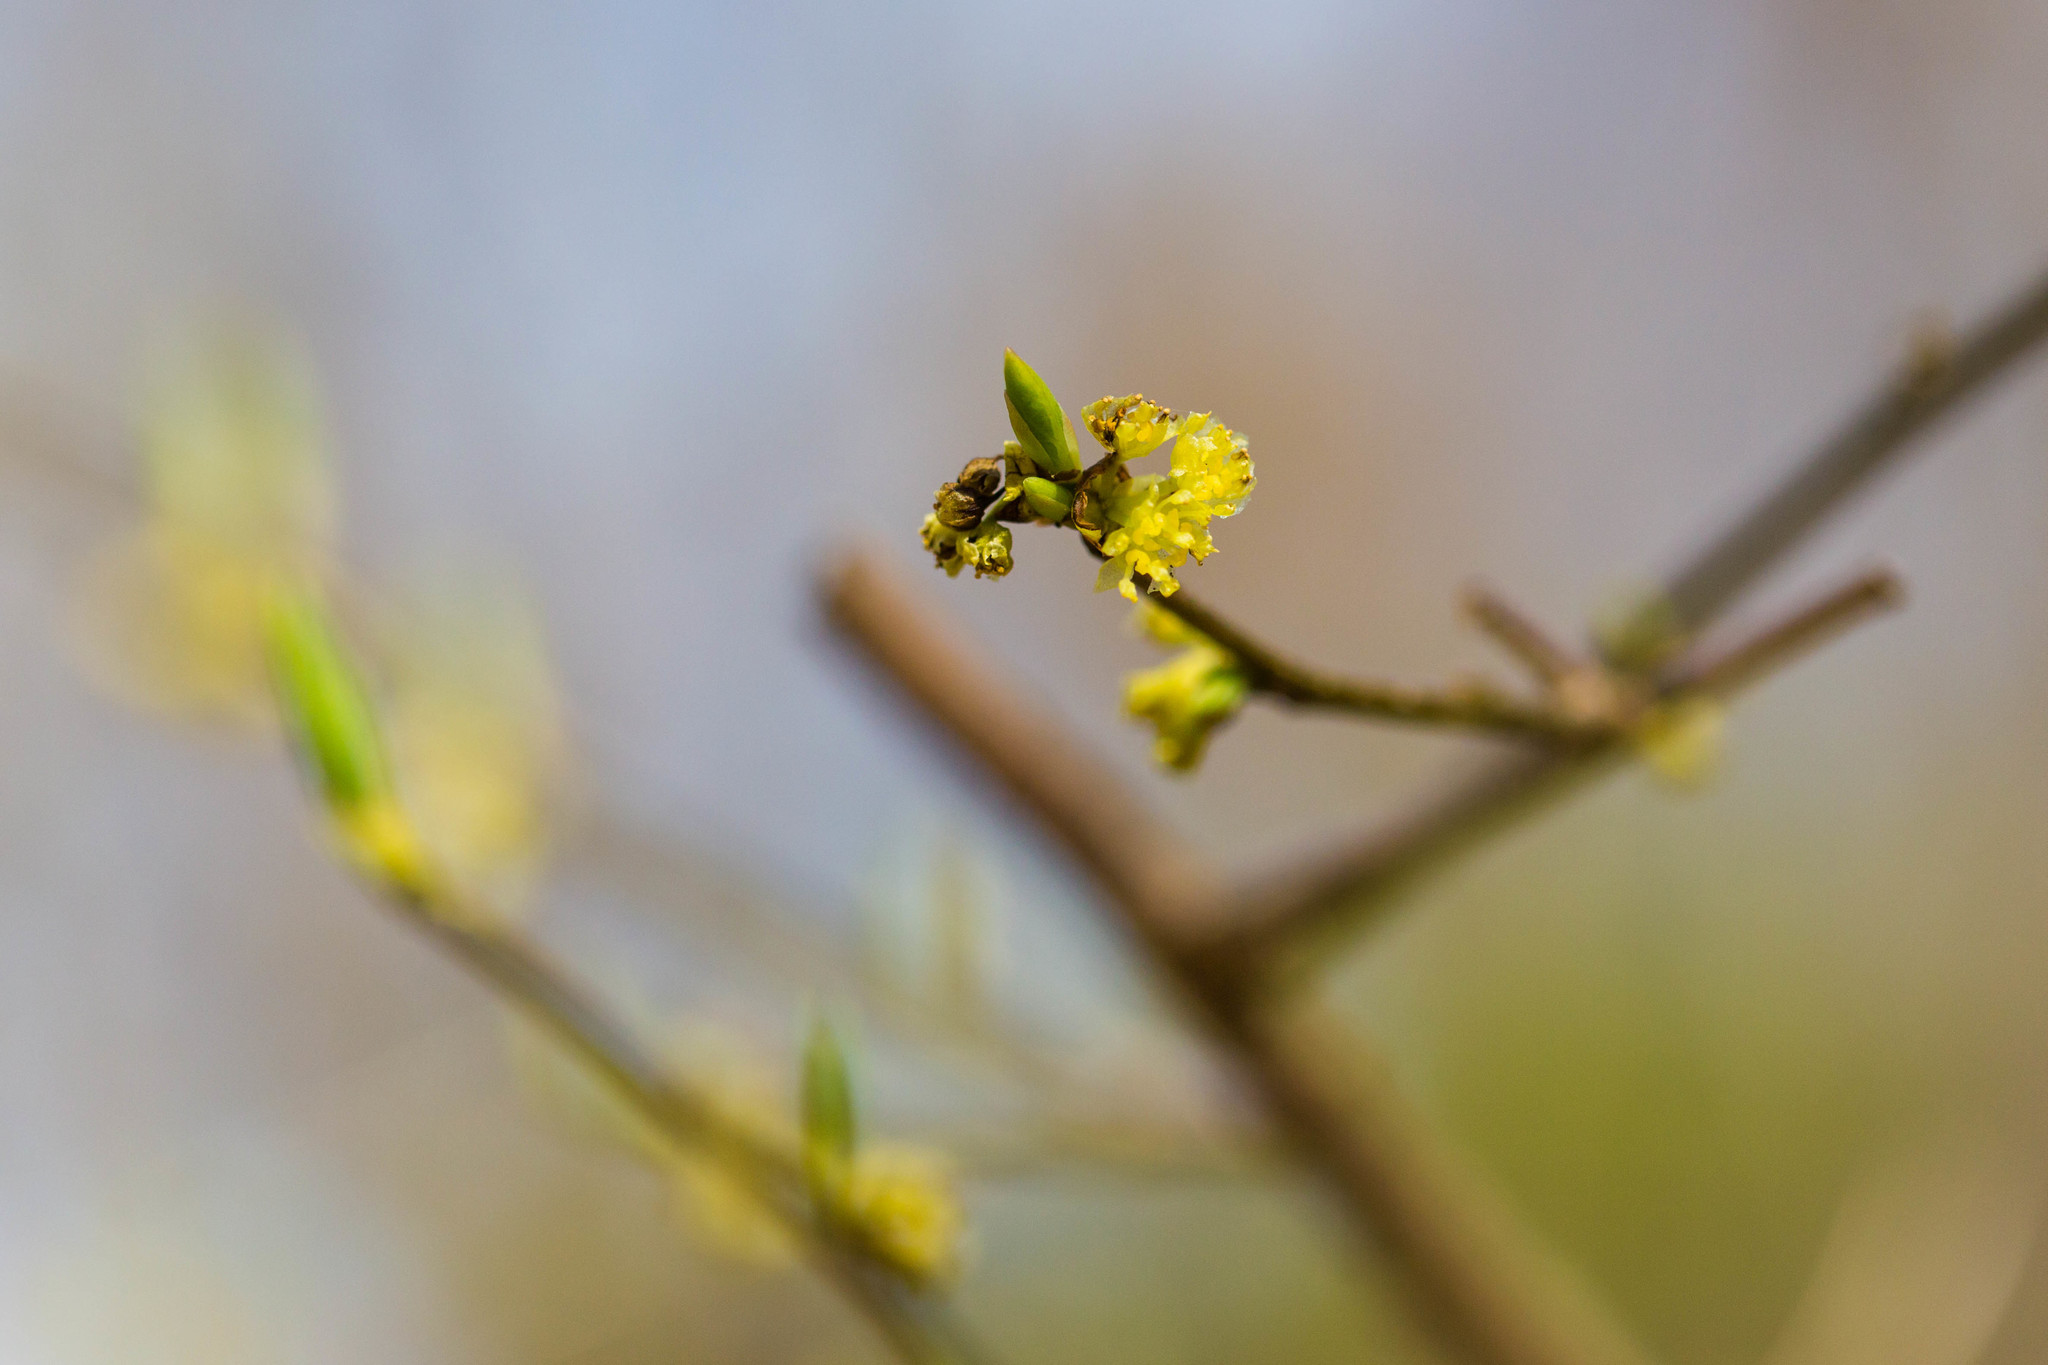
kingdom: Plantae
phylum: Tracheophyta
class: Magnoliopsida
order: Laurales
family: Lauraceae
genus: Lindera
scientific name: Lindera benzoin
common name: Spicebush
